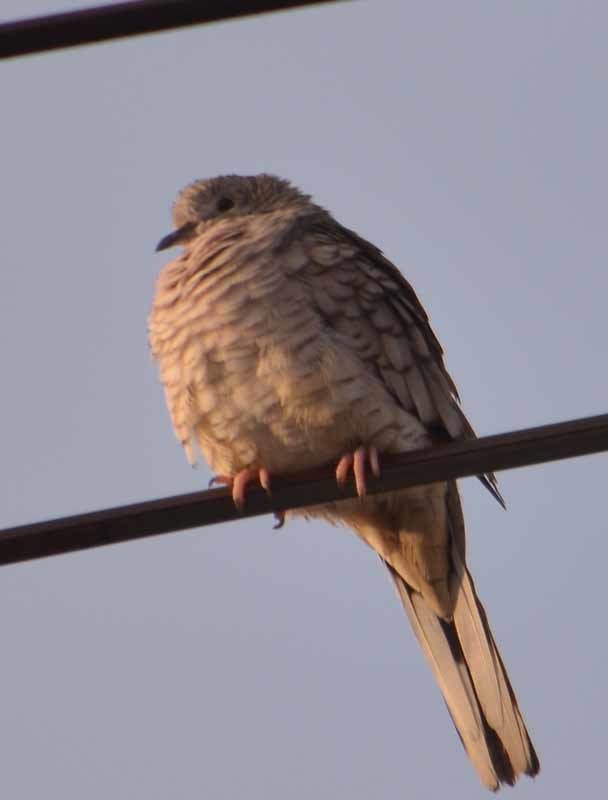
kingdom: Animalia
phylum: Chordata
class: Aves
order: Columbiformes
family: Columbidae
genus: Columbina
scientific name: Columbina inca
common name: Inca dove
